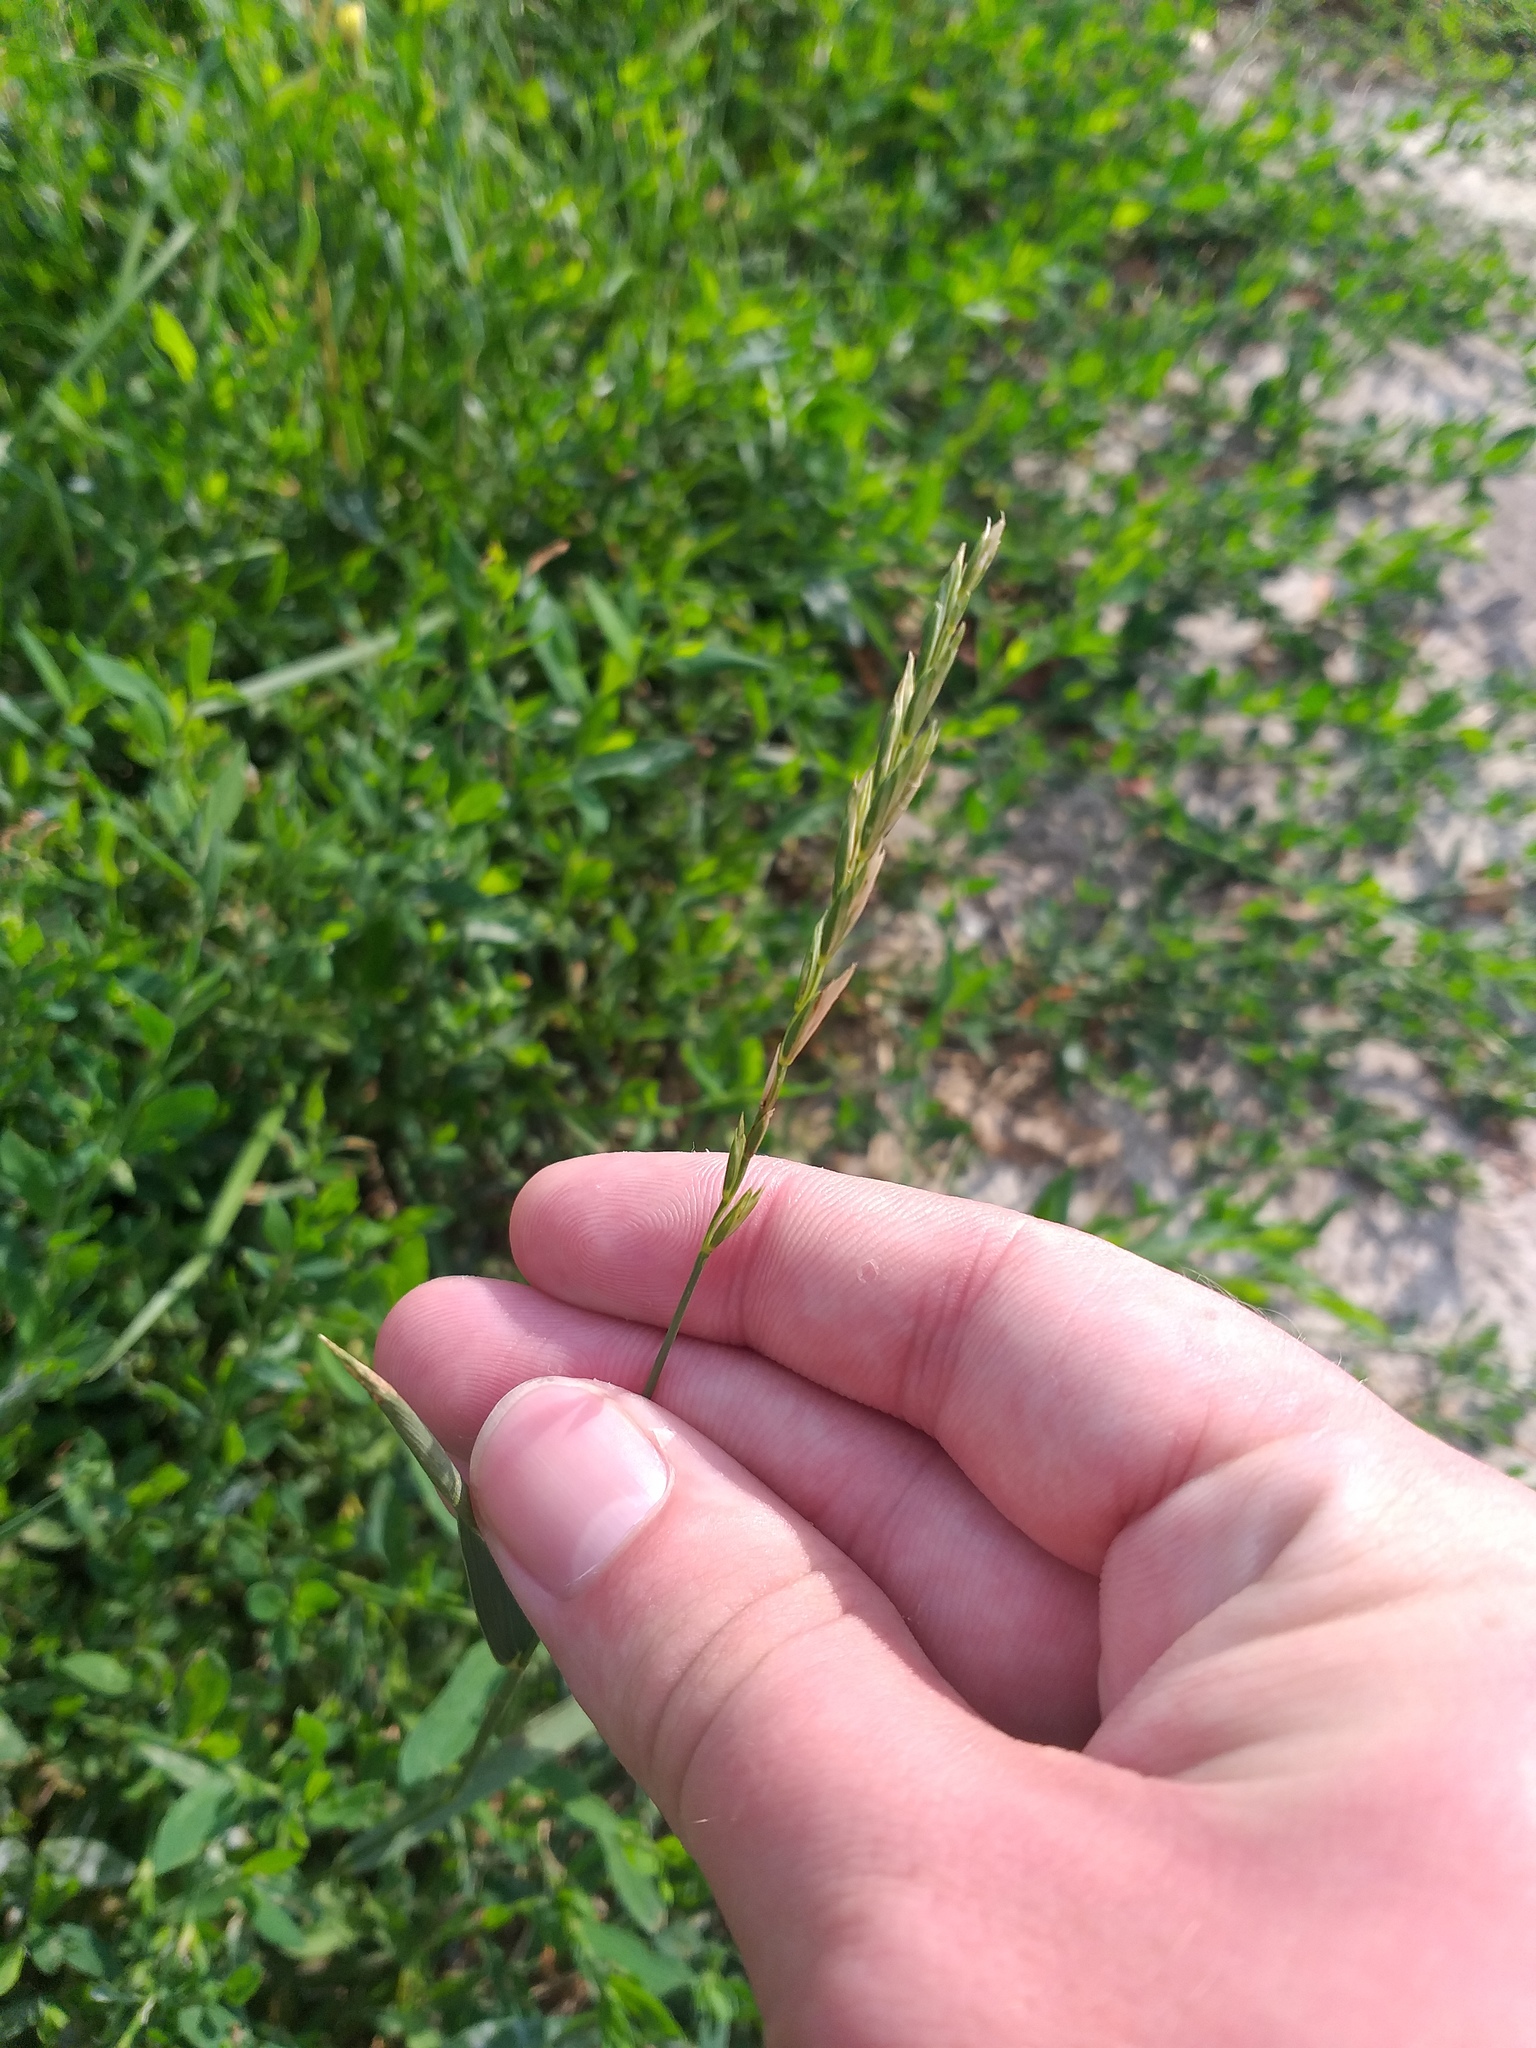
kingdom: Plantae
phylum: Tracheophyta
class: Liliopsida
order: Poales
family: Poaceae
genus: Elymus
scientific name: Elymus repens
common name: Quackgrass
